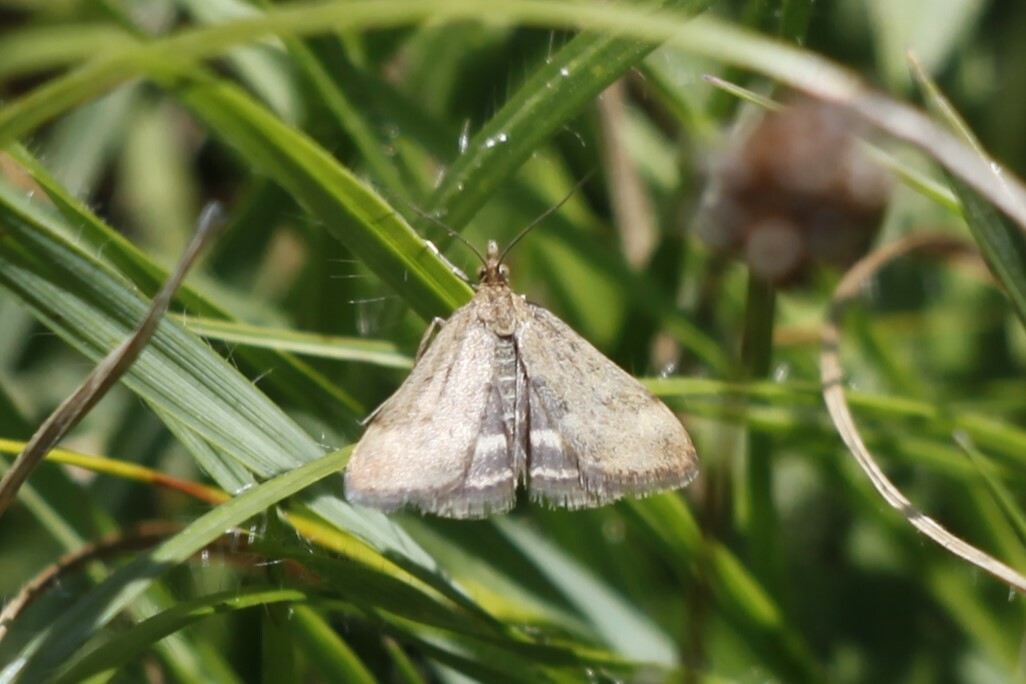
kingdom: Animalia
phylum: Arthropoda
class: Insecta
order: Lepidoptera
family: Crambidae
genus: Pyrausta
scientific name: Pyrausta despicata
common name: Straw-barred pearl
